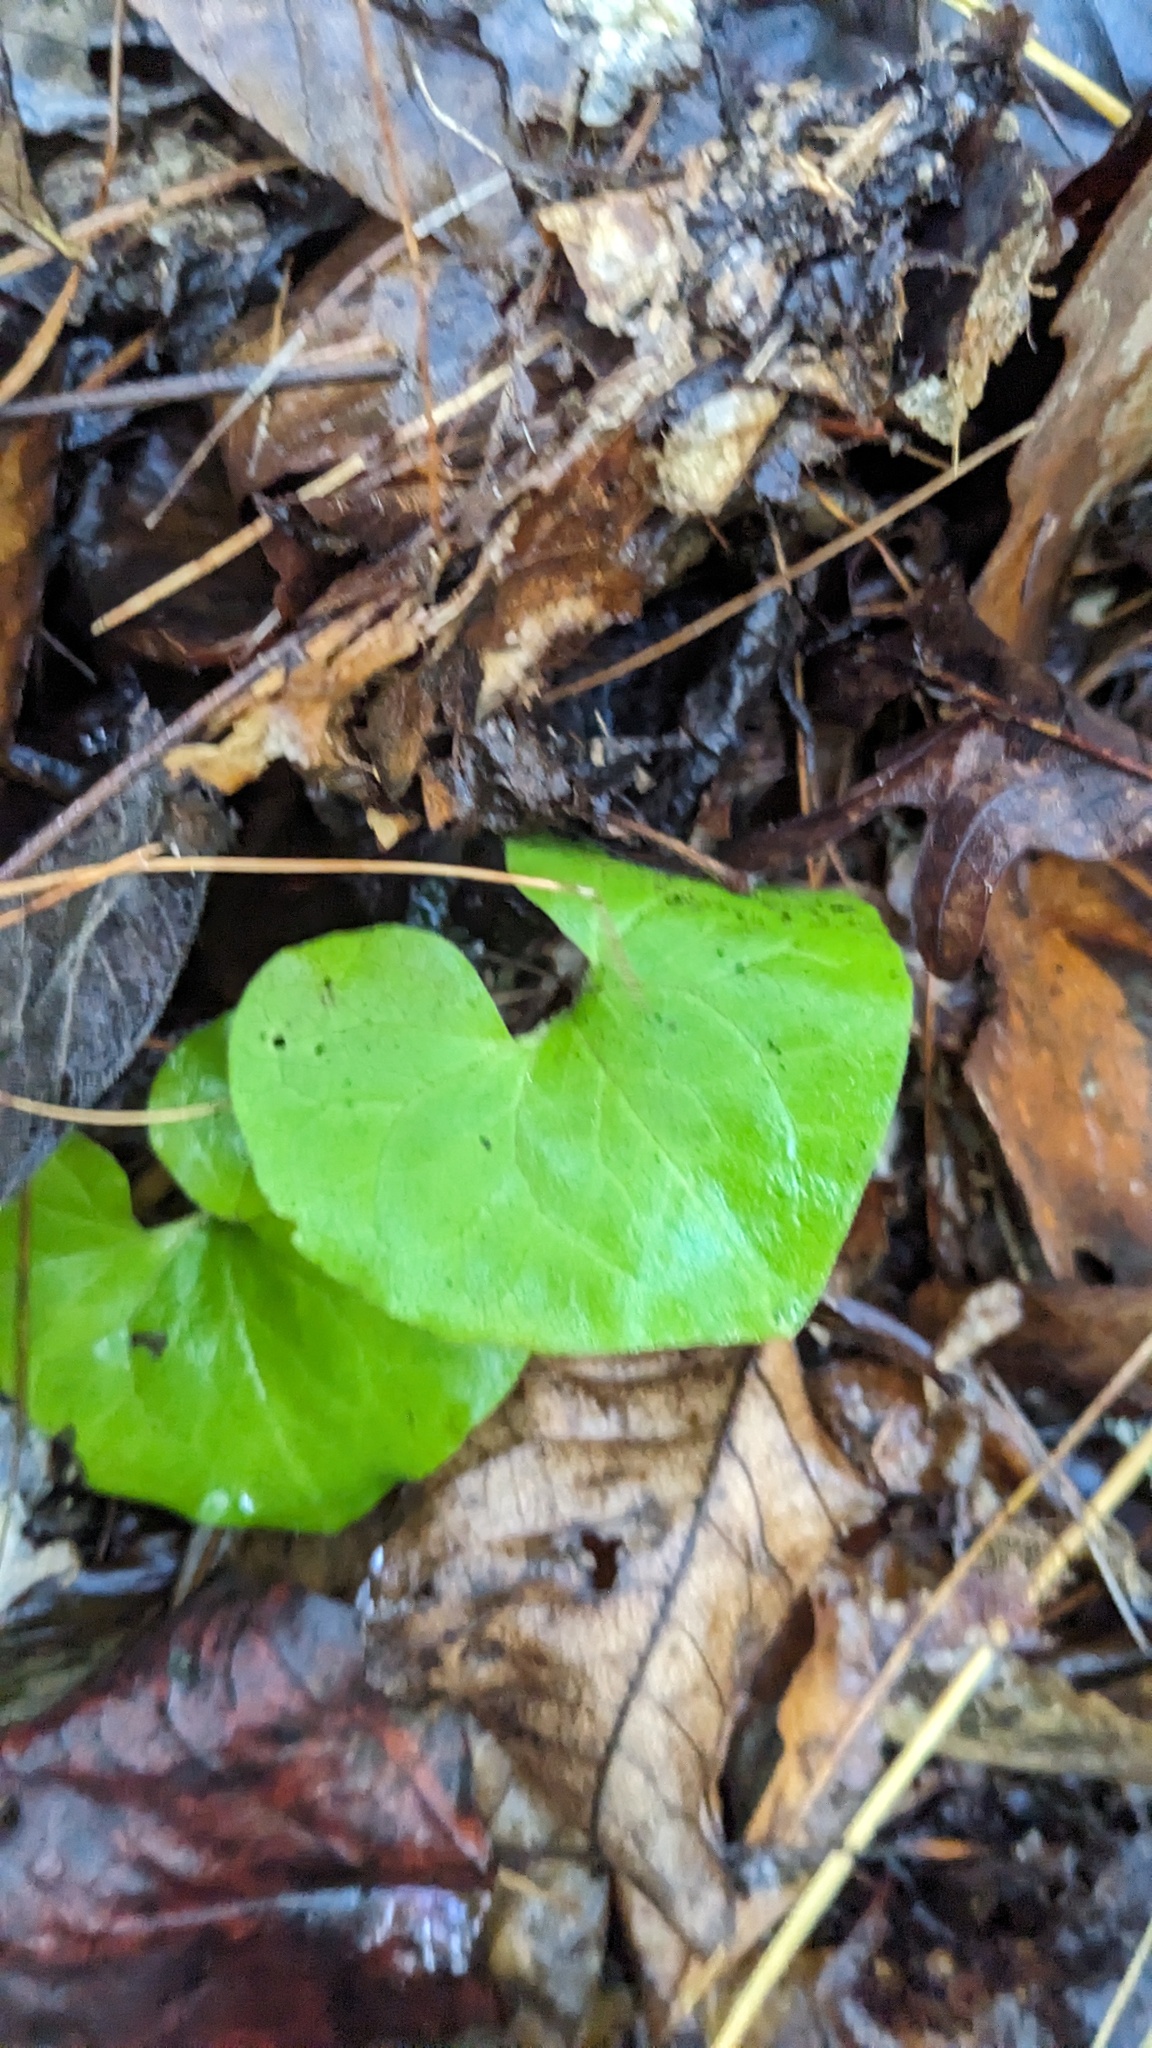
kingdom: Plantae
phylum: Tracheophyta
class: Magnoliopsida
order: Piperales
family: Aristolochiaceae
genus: Asarum
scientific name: Asarum canadense
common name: Wild ginger
